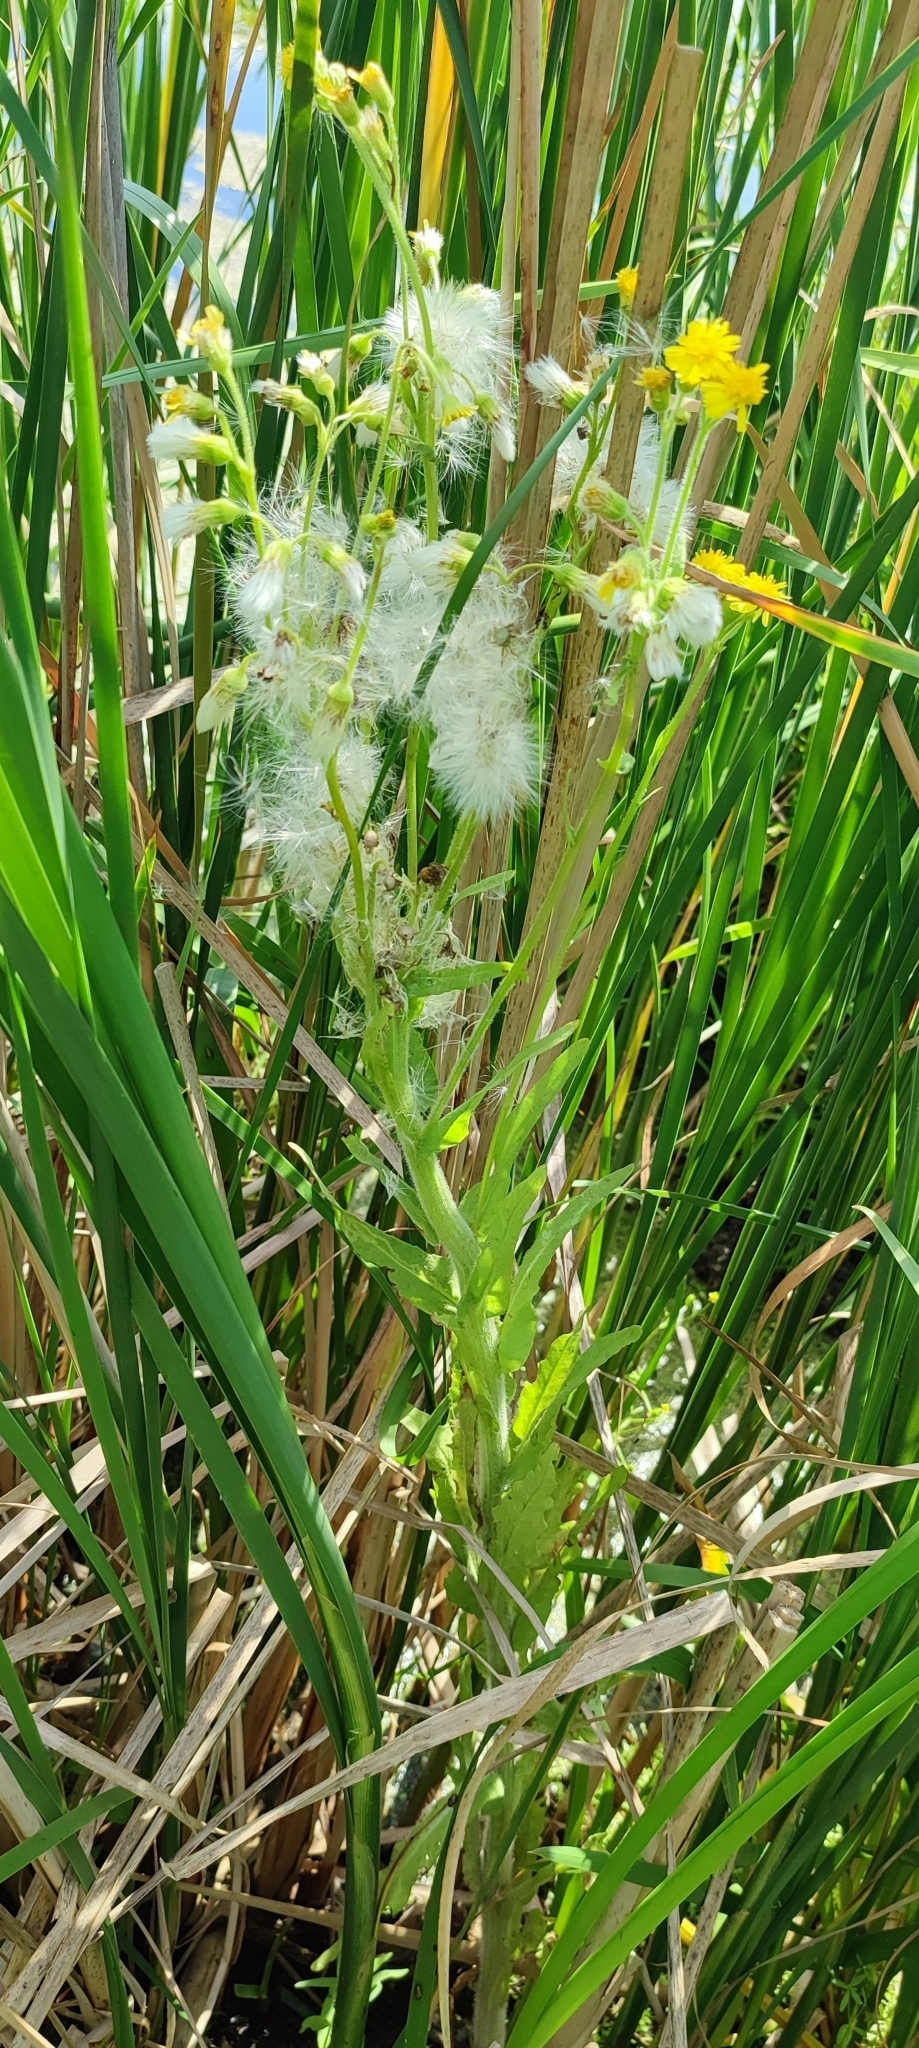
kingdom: Plantae
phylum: Tracheophyta
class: Magnoliopsida
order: Asterales
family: Asteraceae
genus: Tephroseris
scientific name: Tephroseris palustris
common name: Marsh fleawort
